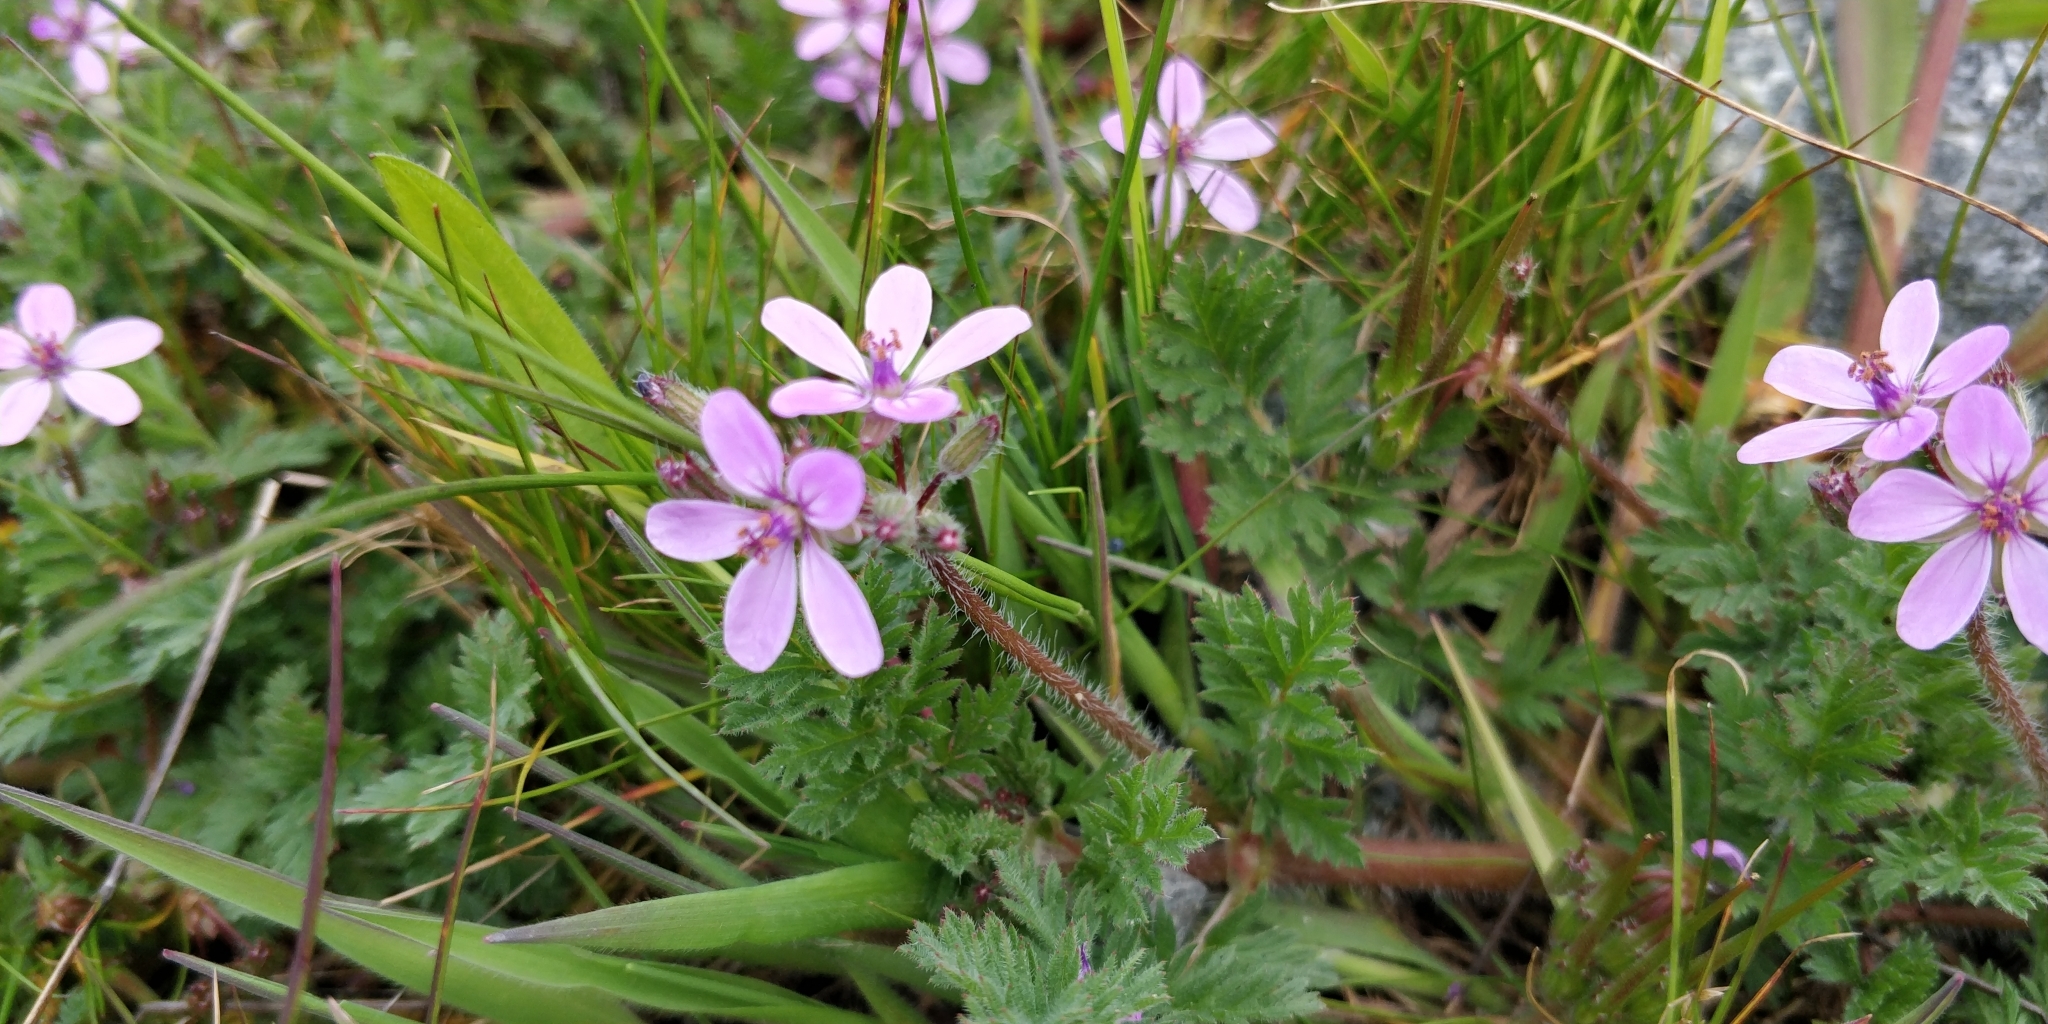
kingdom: Plantae
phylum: Tracheophyta
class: Magnoliopsida
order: Geraniales
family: Geraniaceae
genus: Erodium
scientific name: Erodium cicutarium
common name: Common stork's-bill
